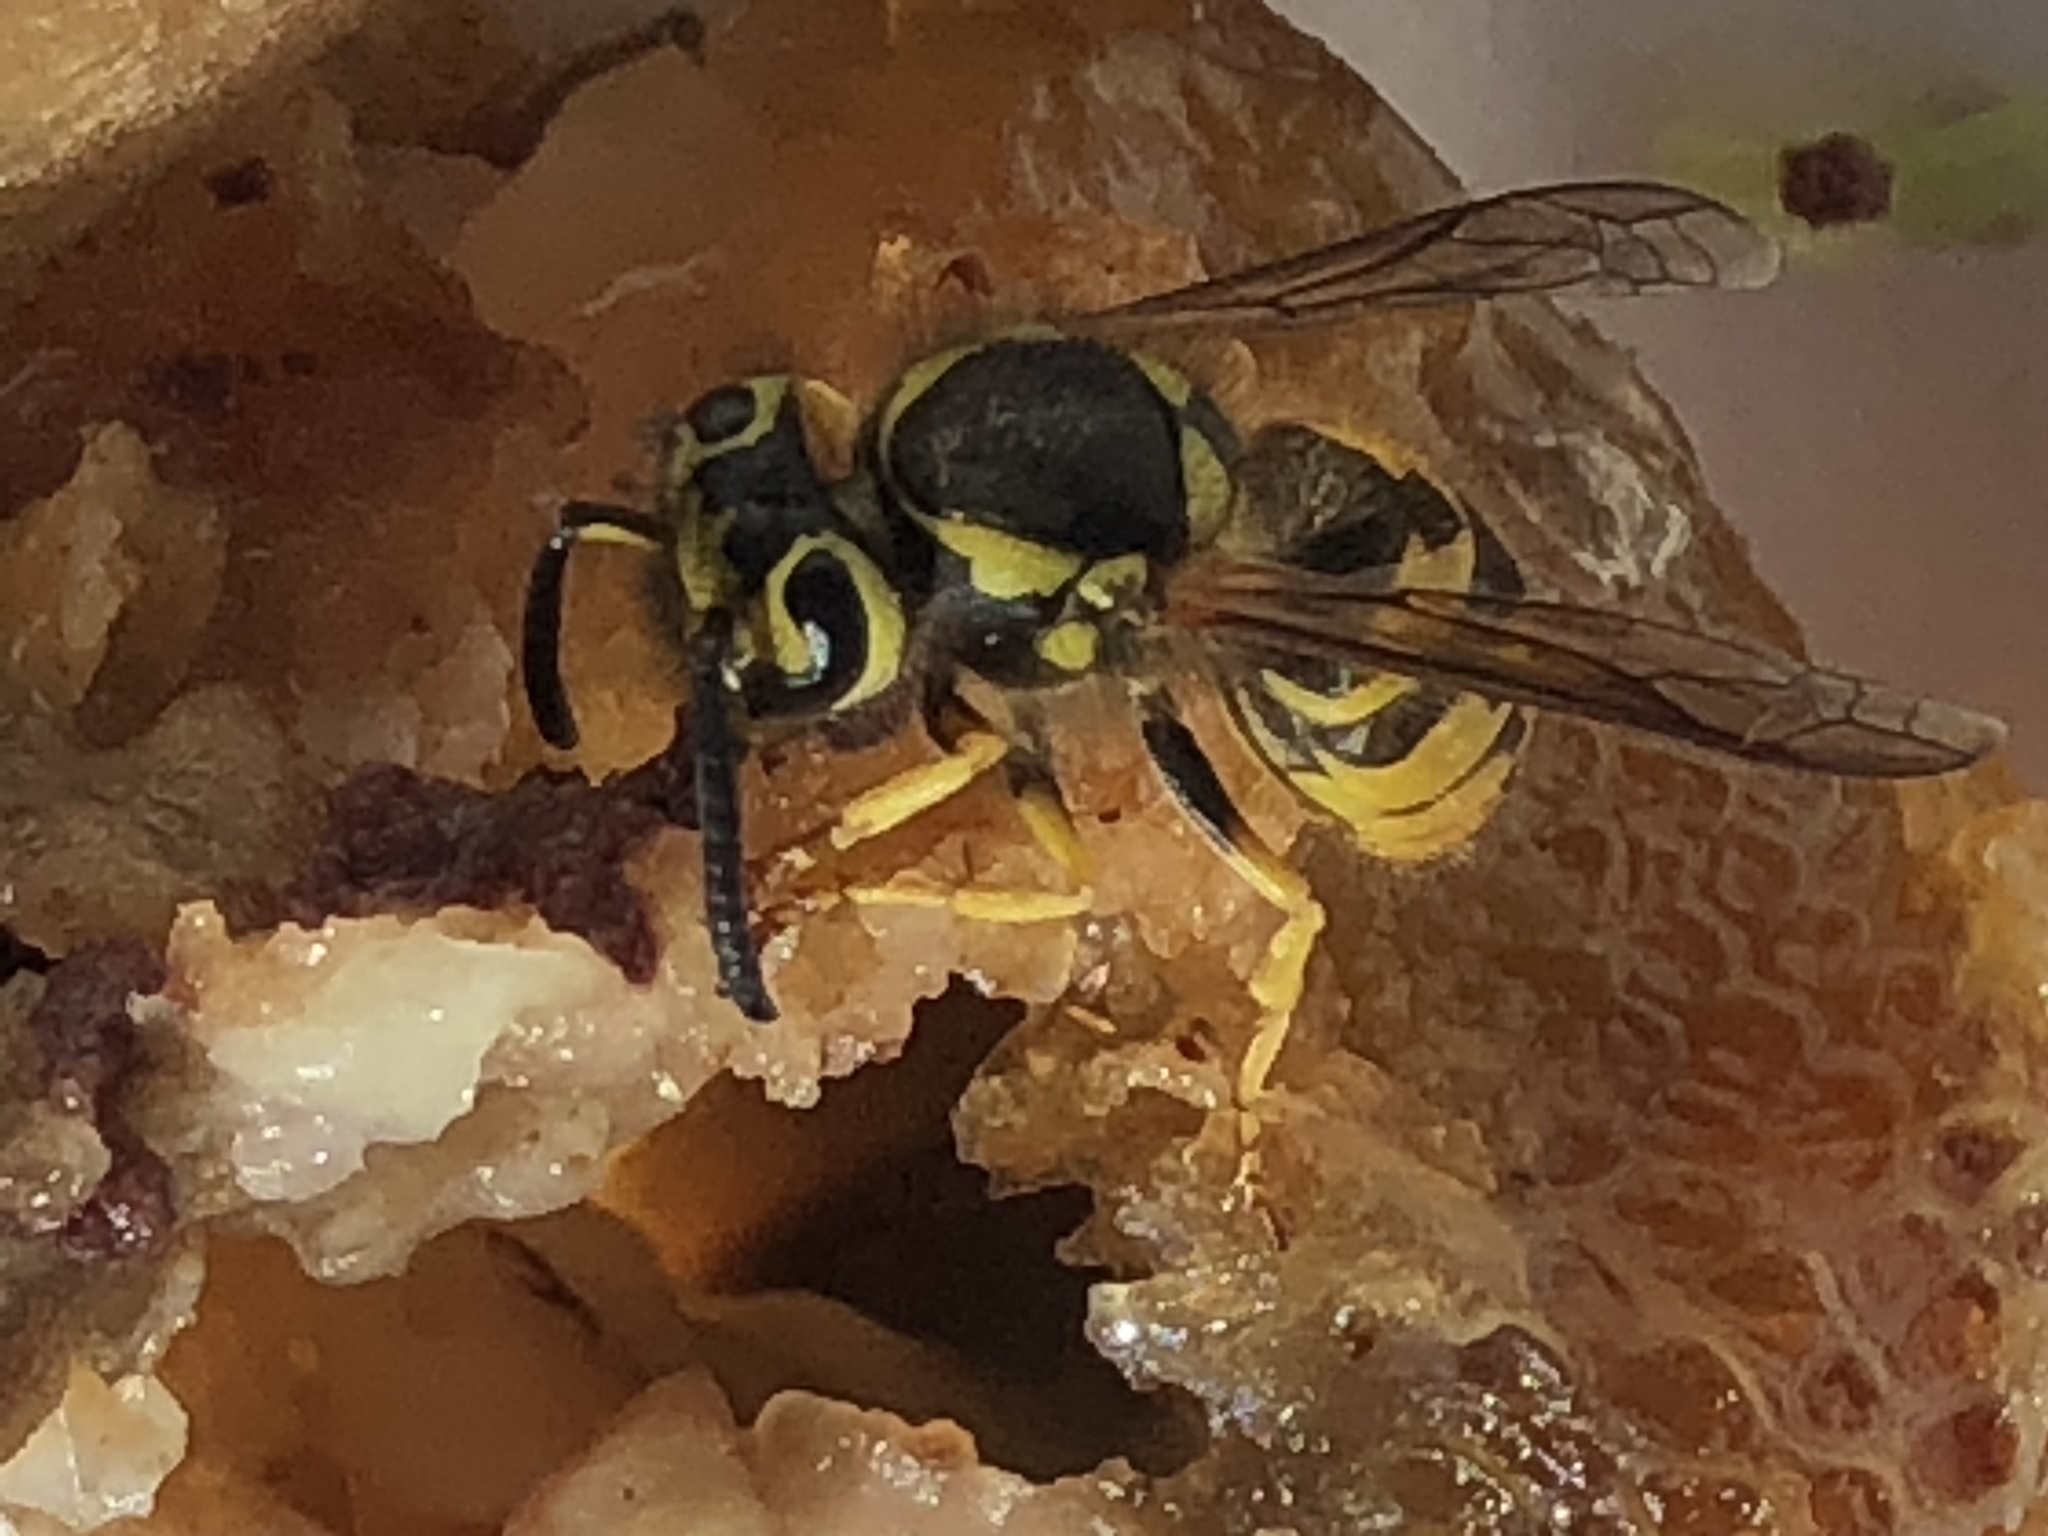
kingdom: Animalia
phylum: Arthropoda
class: Insecta
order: Hymenoptera
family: Vespidae
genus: Vespula
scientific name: Vespula pensylvanica
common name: Western yellowjacket
